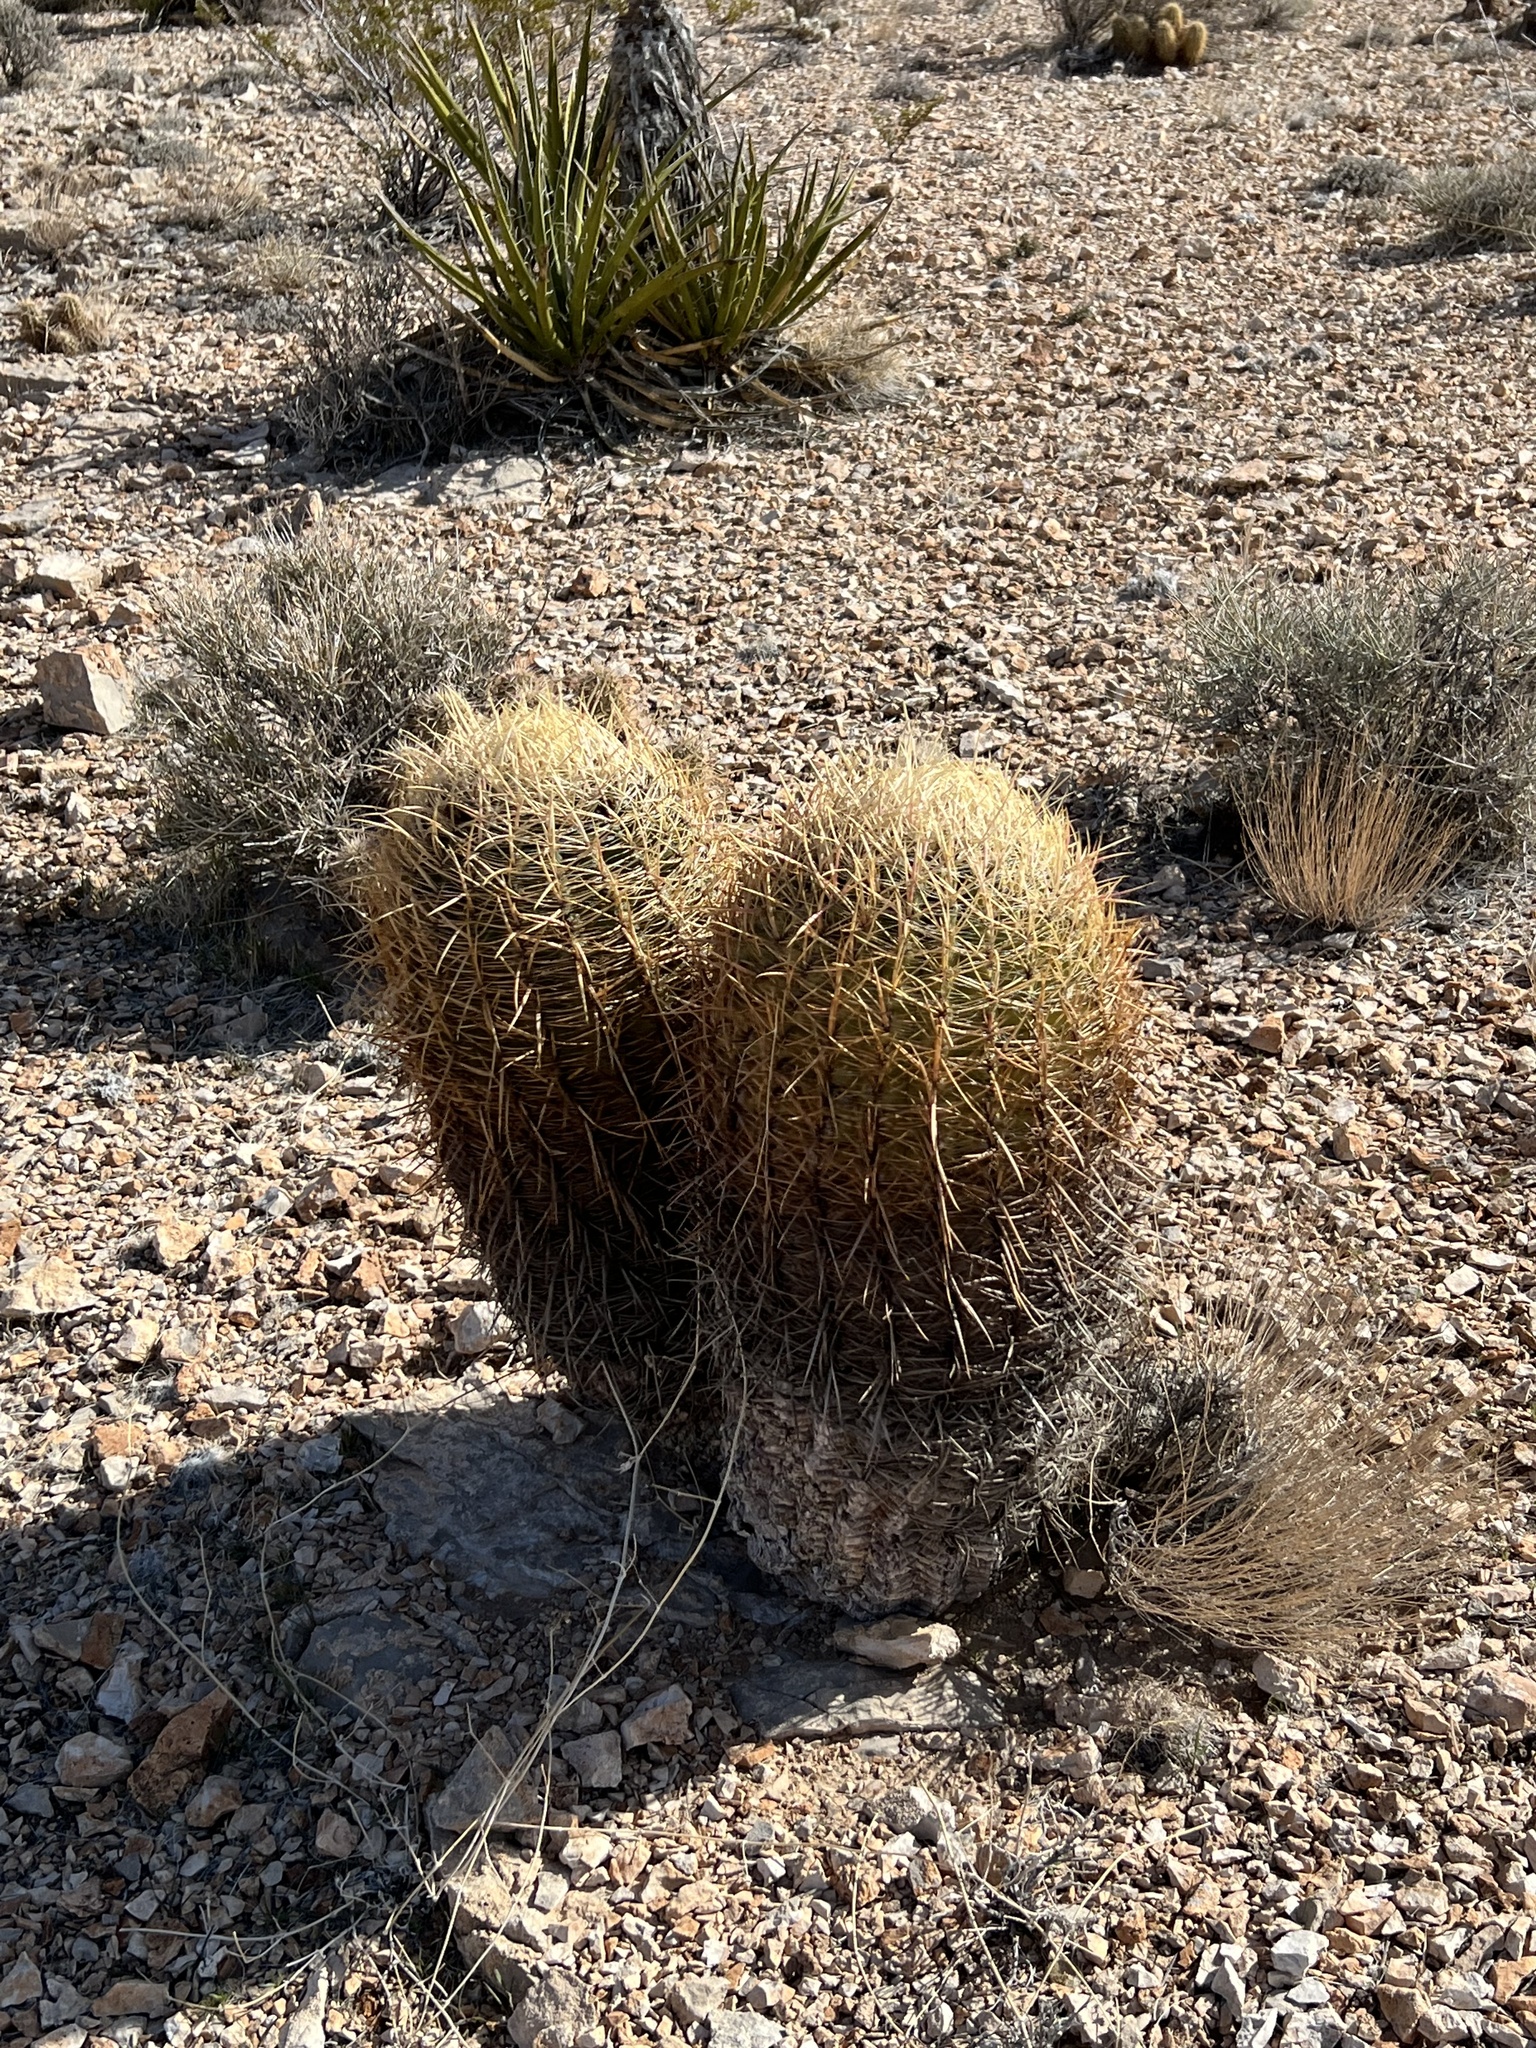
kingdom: Plantae
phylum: Tracheophyta
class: Magnoliopsida
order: Caryophyllales
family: Cactaceae
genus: Ferocactus
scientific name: Ferocactus cylindraceus
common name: California barrel cactus
